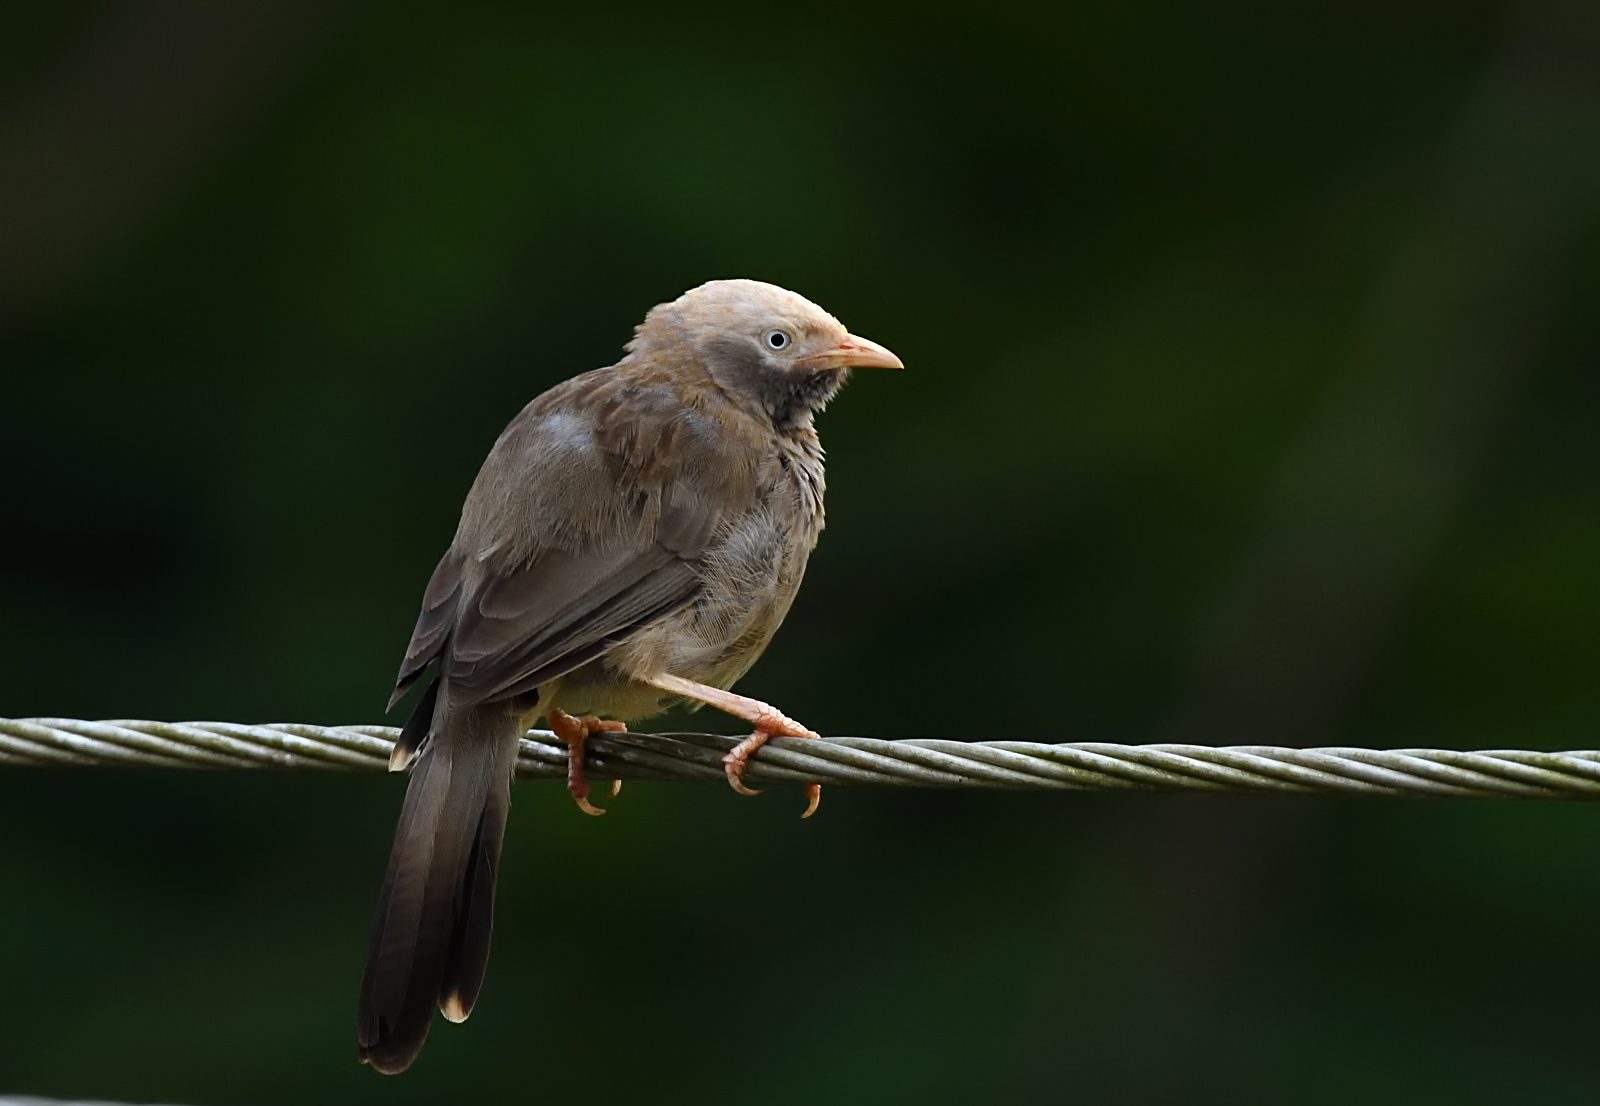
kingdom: Animalia
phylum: Chordata
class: Aves
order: Passeriformes
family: Leiothrichidae
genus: Turdoides
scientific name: Turdoides affinis
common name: Yellow-billed babbler
